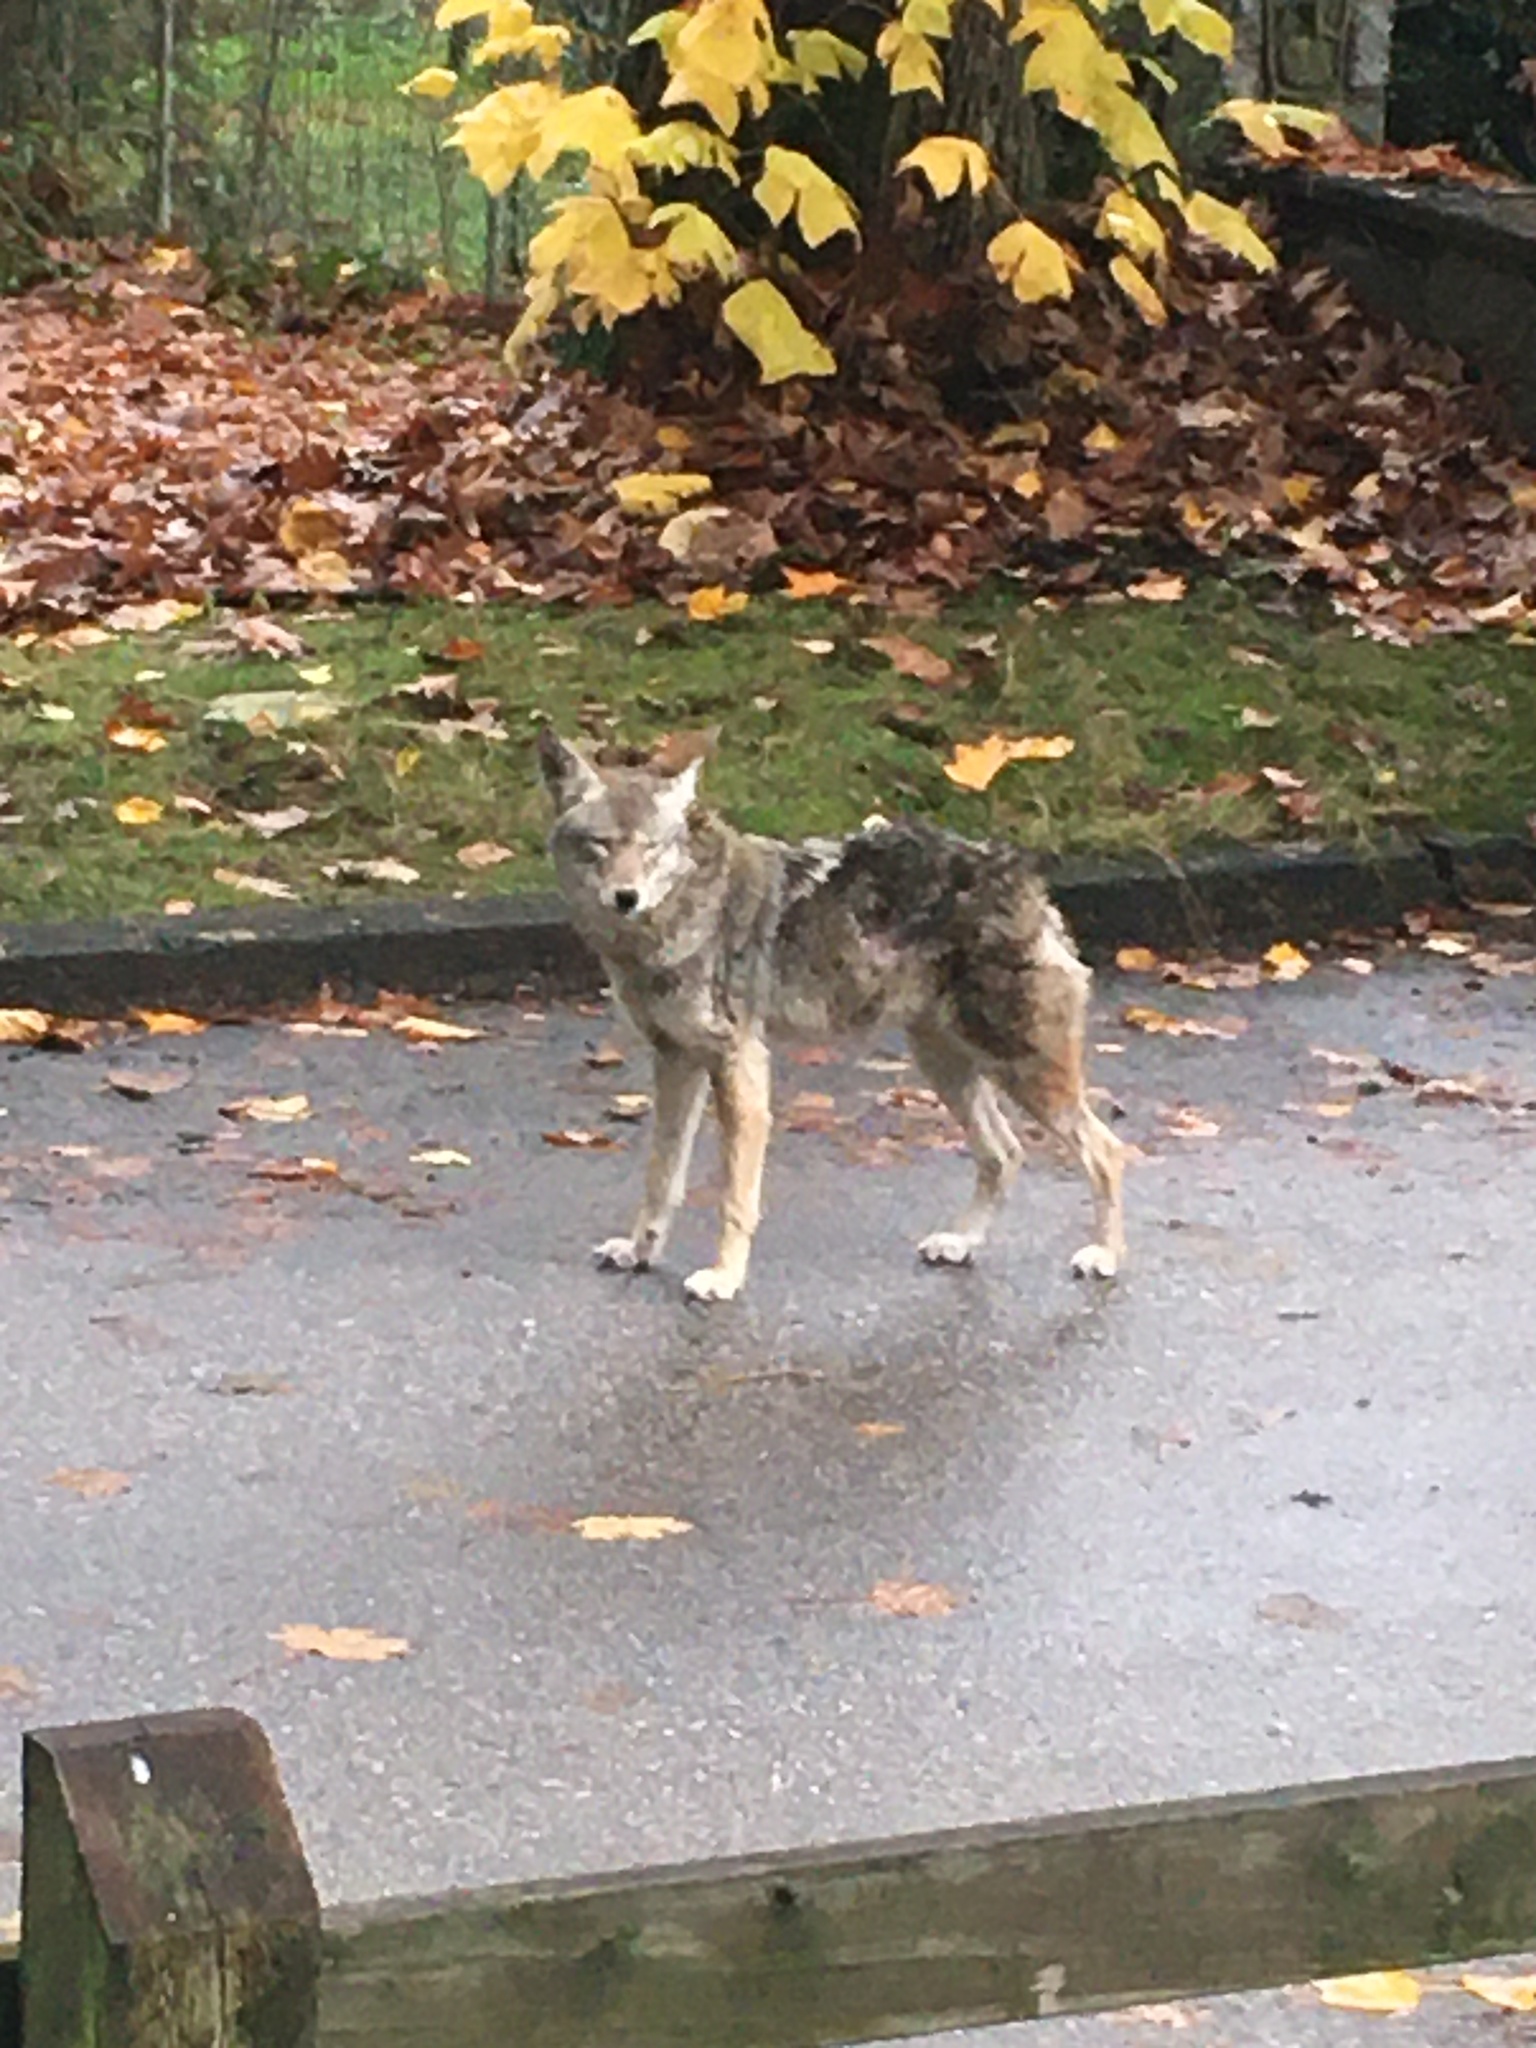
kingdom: Animalia
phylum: Chordata
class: Mammalia
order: Carnivora
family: Canidae
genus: Canis
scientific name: Canis latrans
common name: Coyote
